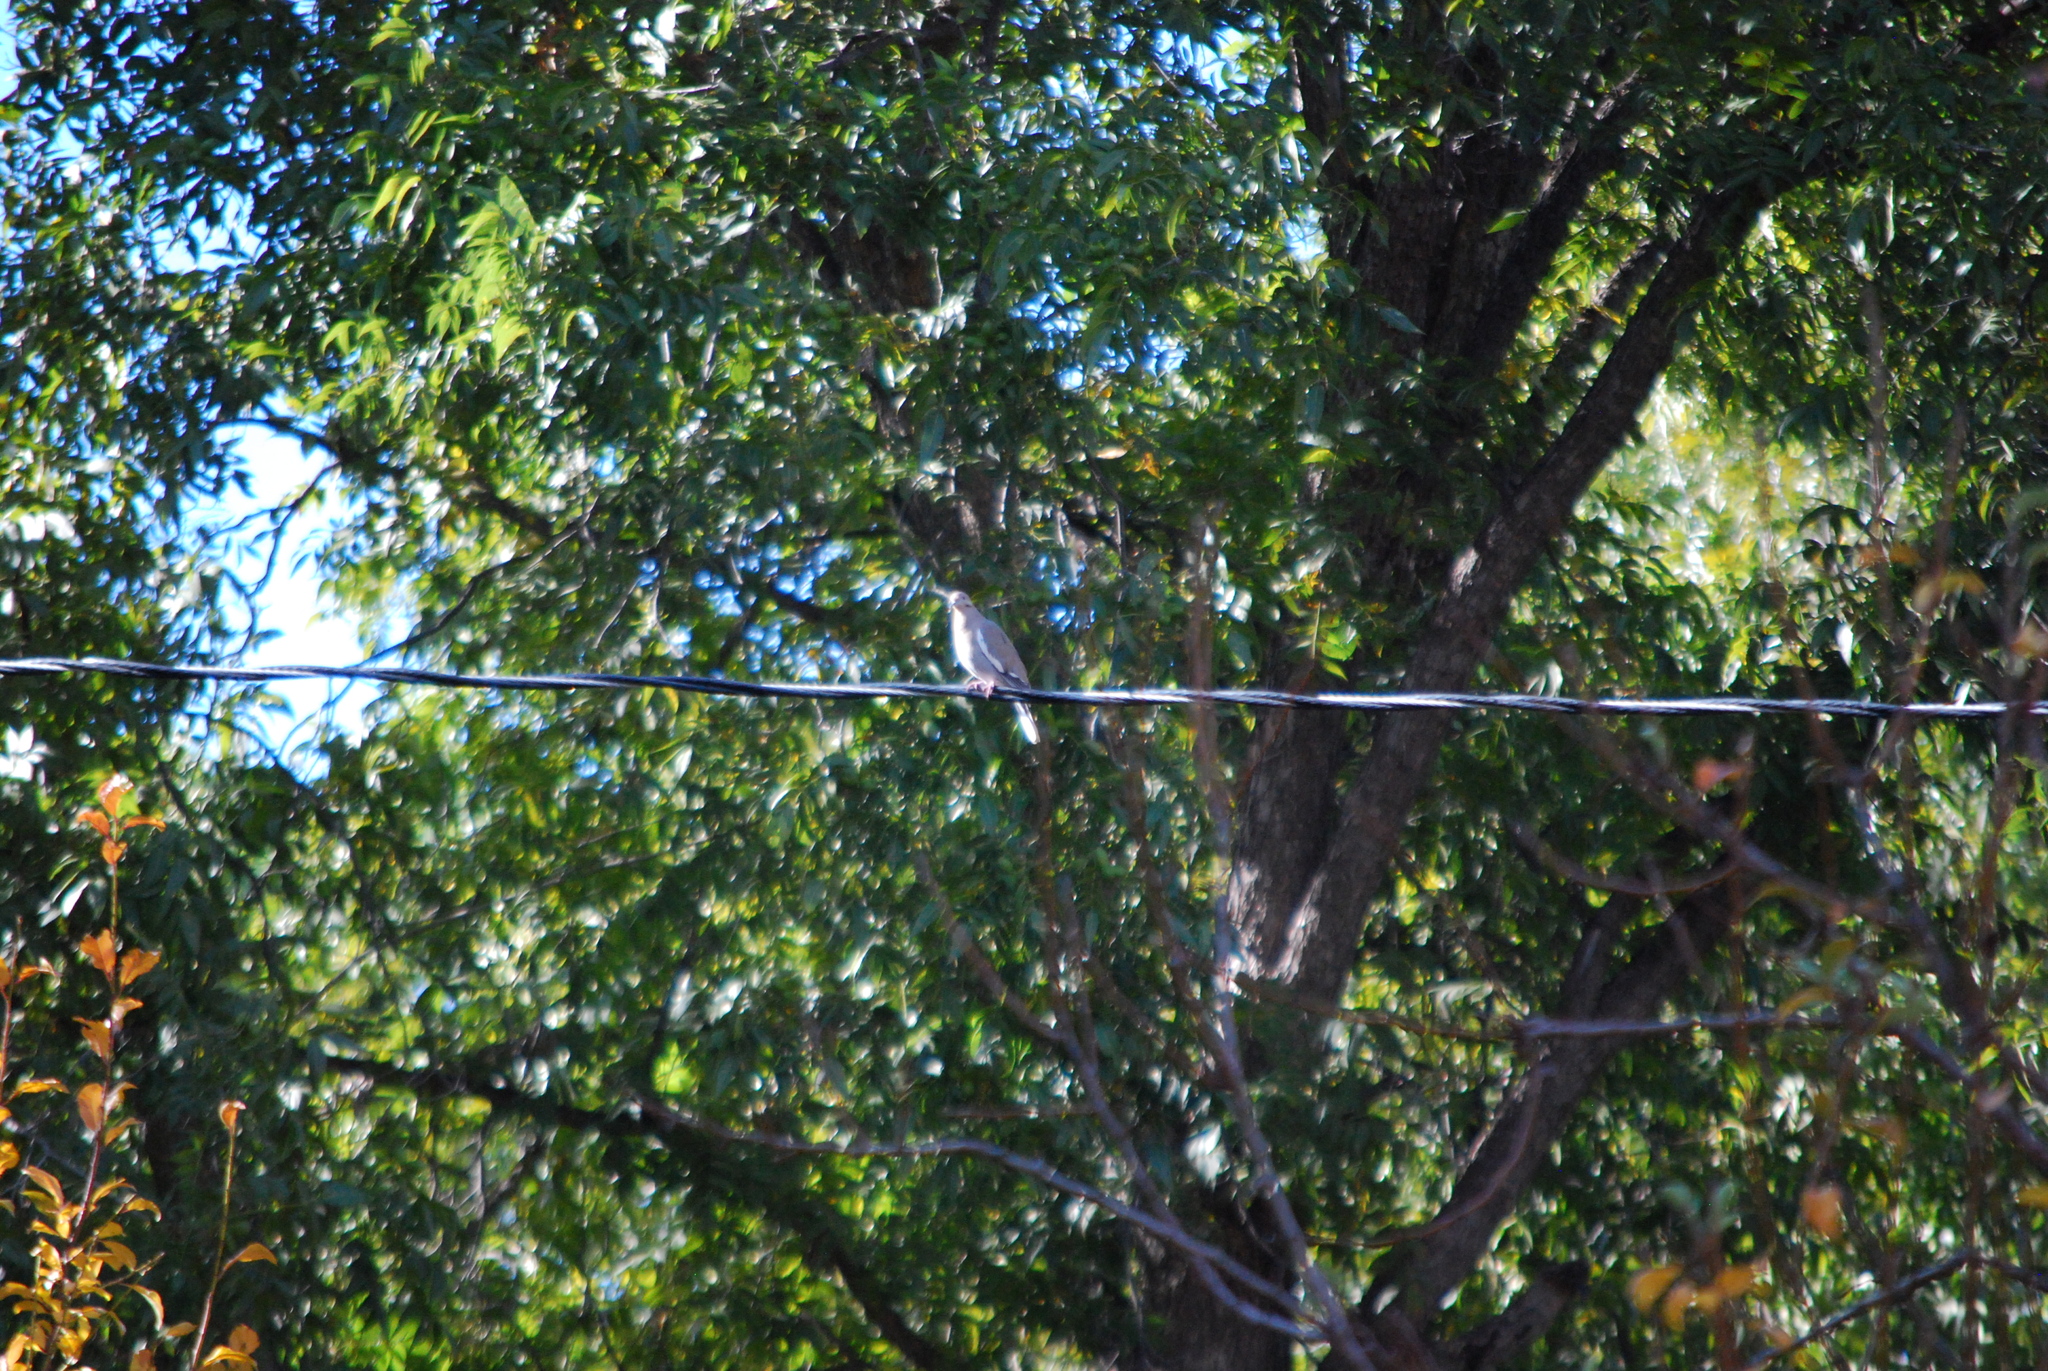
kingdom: Animalia
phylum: Chordata
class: Aves
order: Columbiformes
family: Columbidae
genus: Zenaida
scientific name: Zenaida asiatica
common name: White-winged dove
